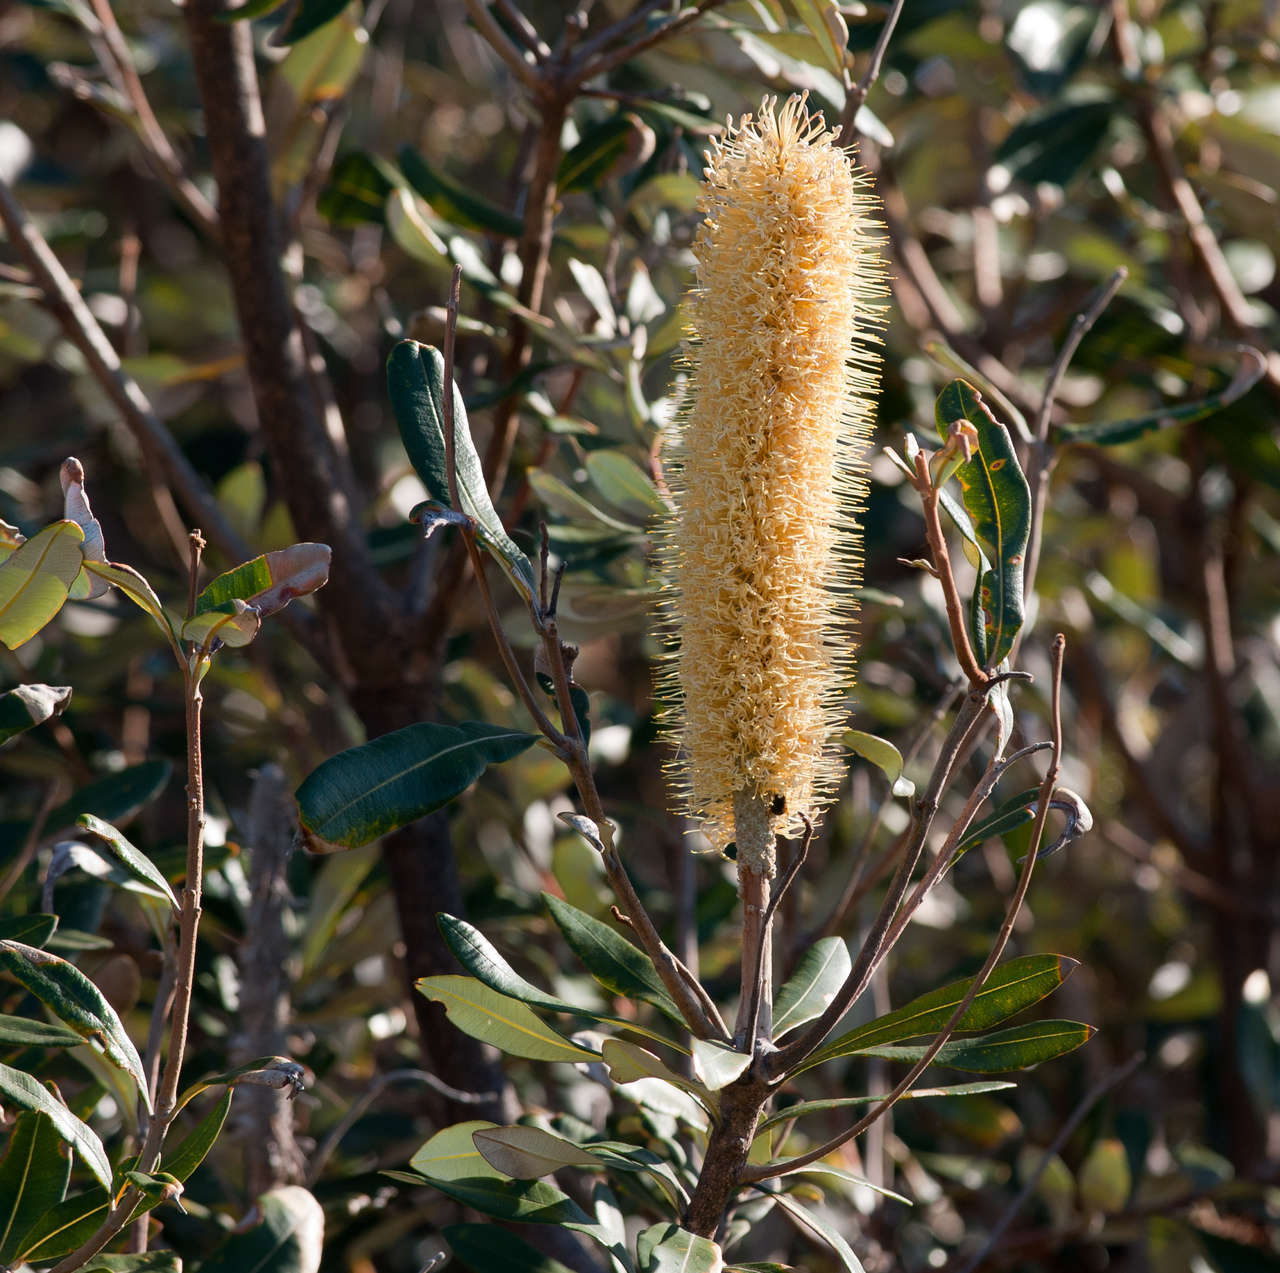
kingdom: Plantae
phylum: Tracheophyta
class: Magnoliopsida
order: Proteales
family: Proteaceae
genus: Banksia
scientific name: Banksia integrifolia
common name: White-honeysuckle
